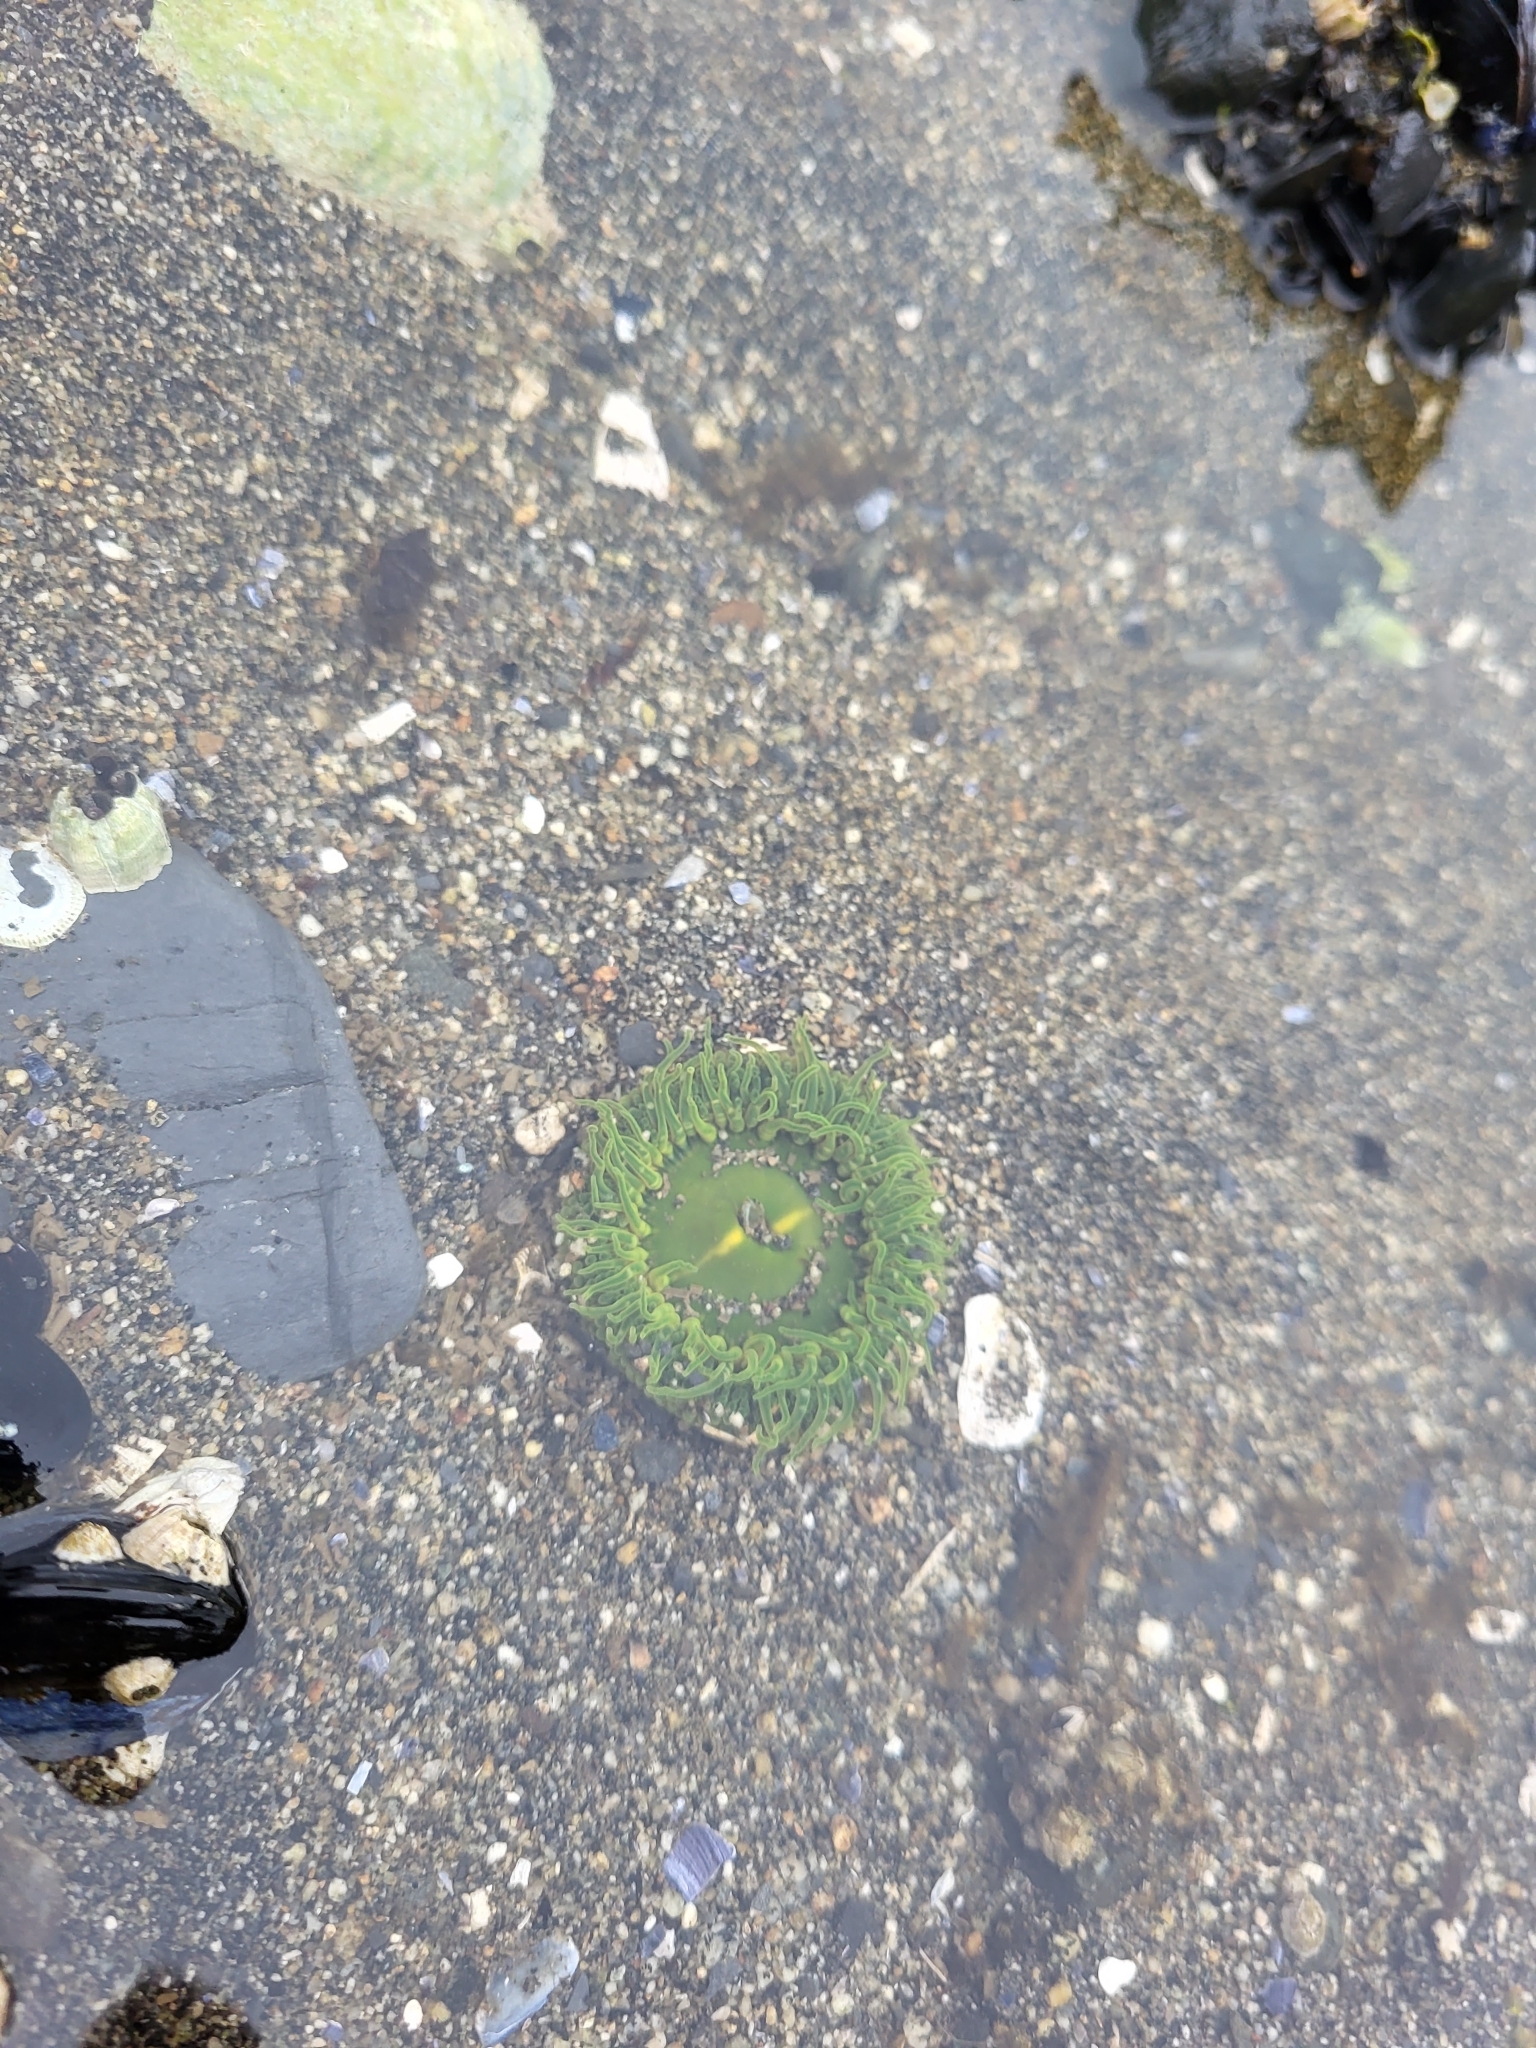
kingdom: Animalia
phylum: Cnidaria
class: Anthozoa
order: Actiniaria
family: Actiniidae
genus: Anthopleura
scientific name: Anthopleura artemisia
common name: Buried sea anemone
